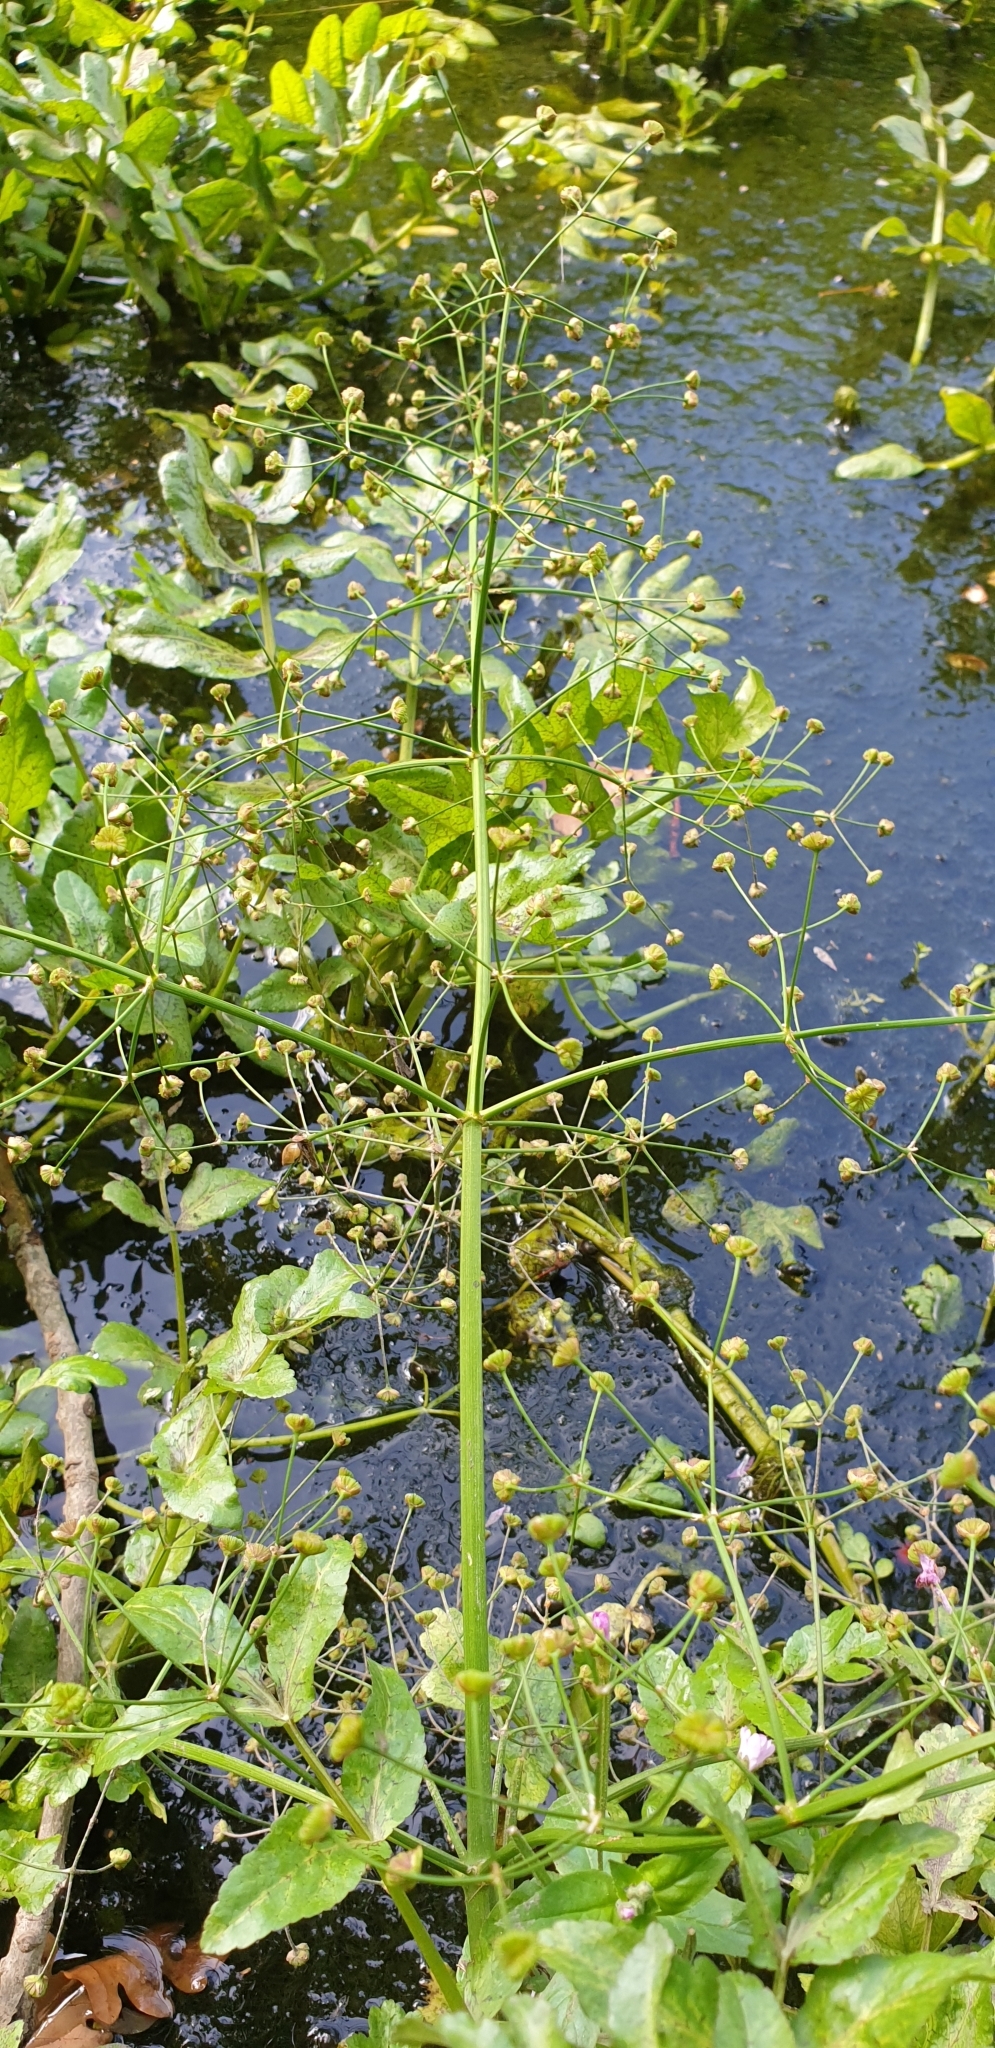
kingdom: Plantae
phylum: Tracheophyta
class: Liliopsida
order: Alismatales
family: Alismataceae
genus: Alisma
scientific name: Alisma plantago-aquatica
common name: Water-plantain
